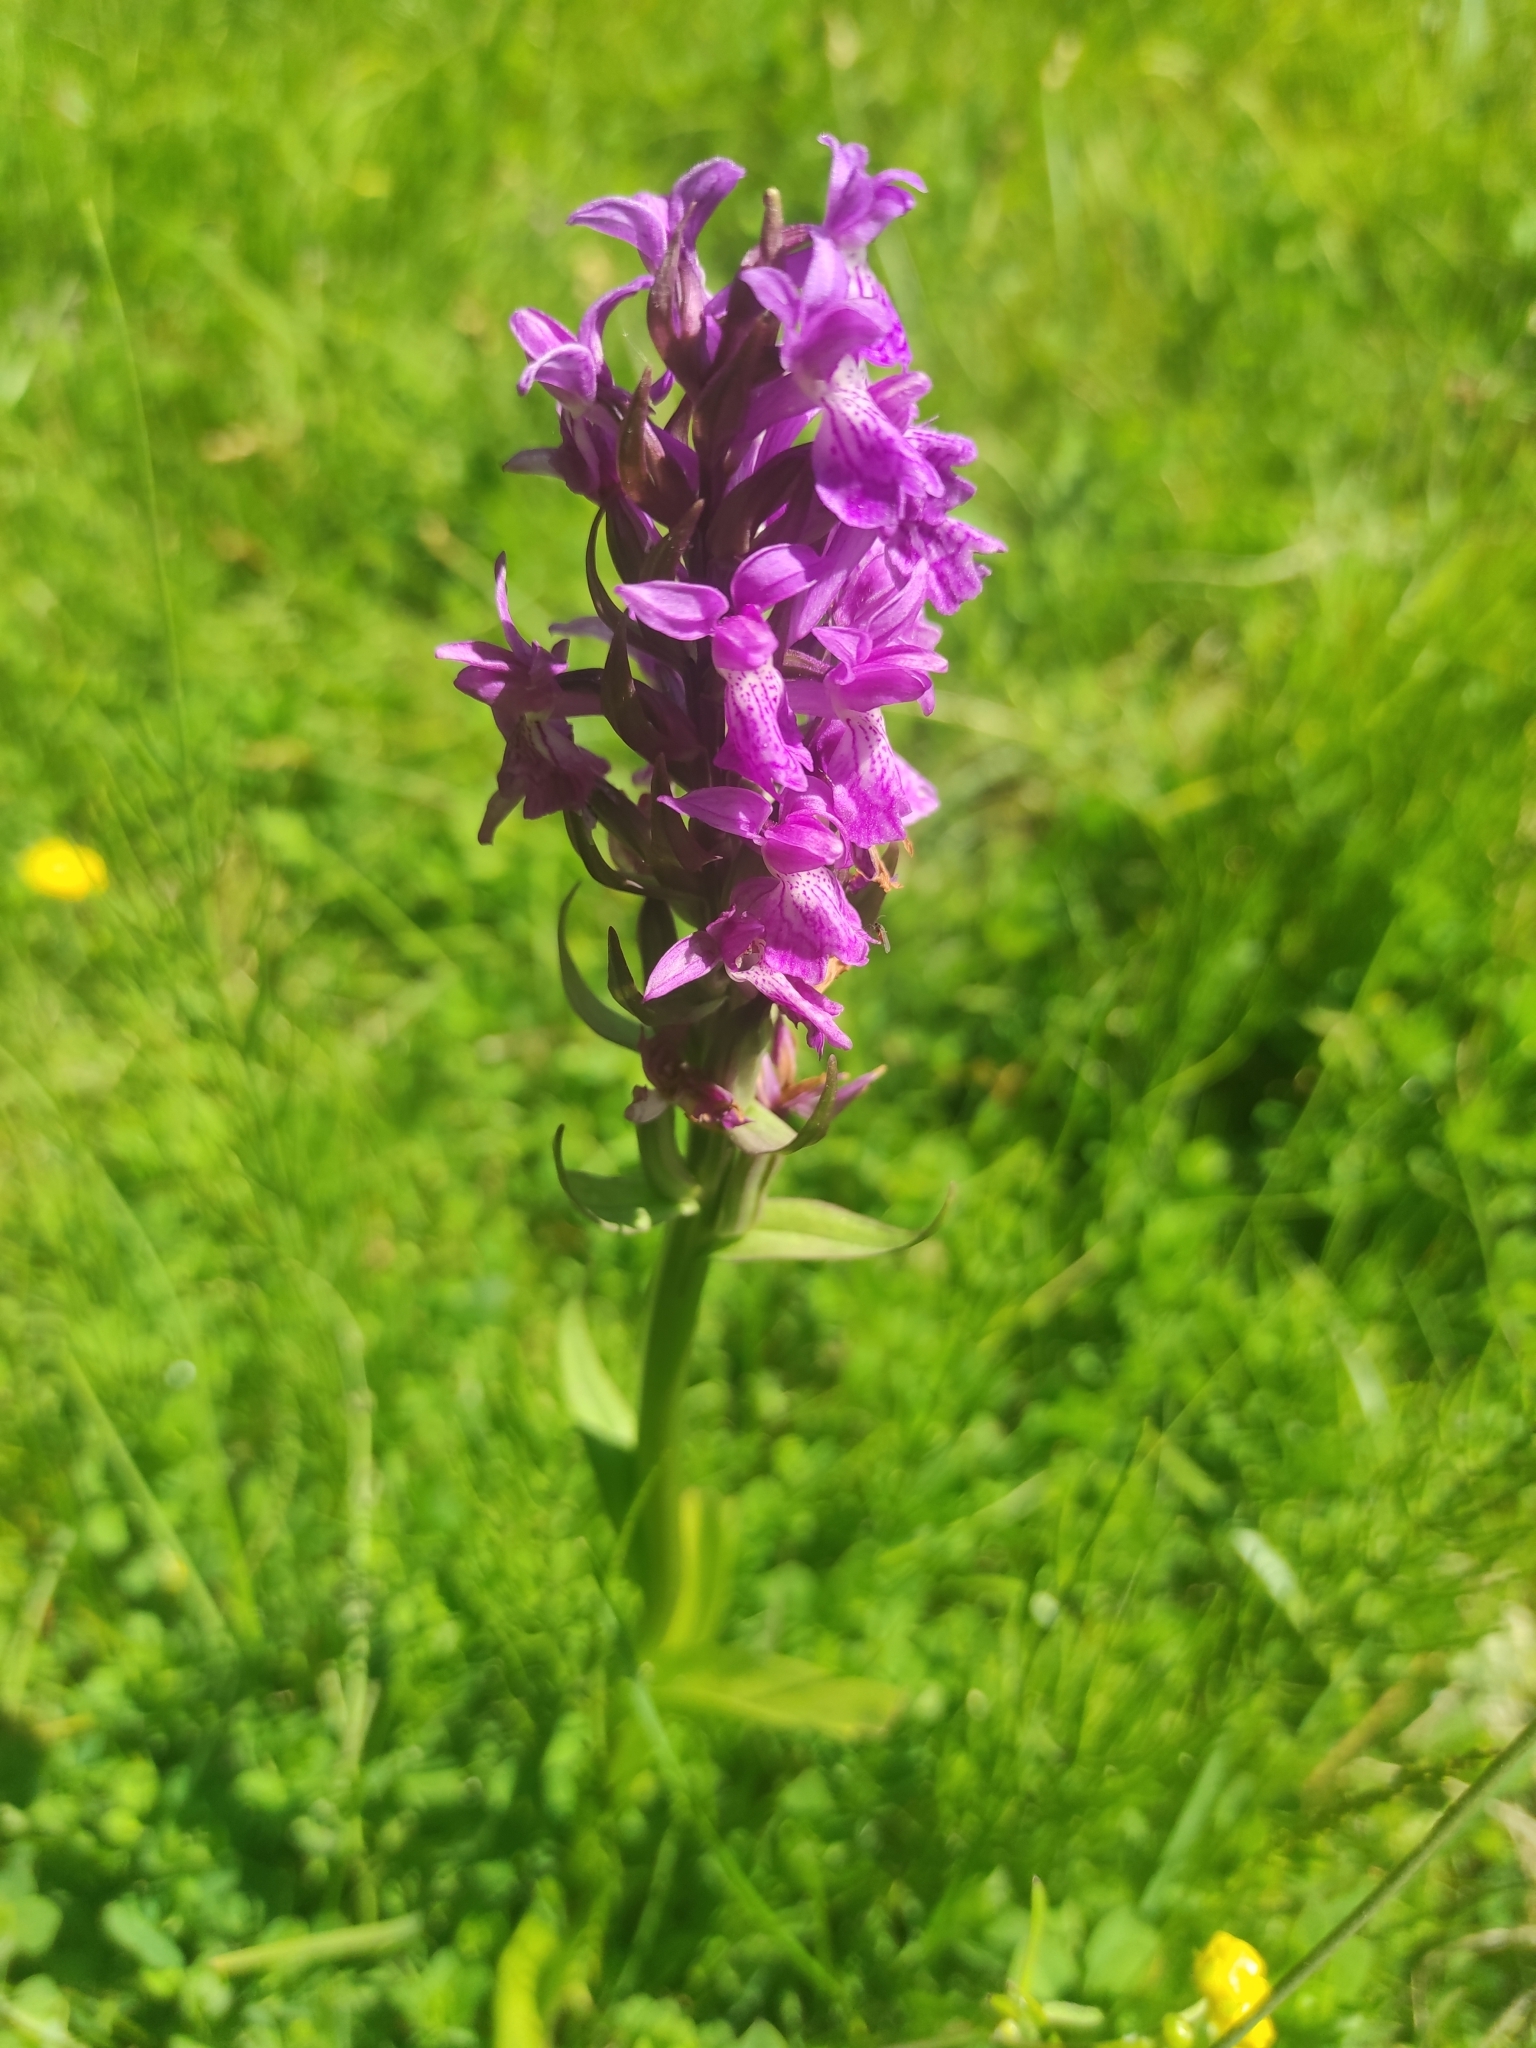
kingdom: Plantae
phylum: Tracheophyta
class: Liliopsida
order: Asparagales
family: Orchidaceae
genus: Dactylorhiza
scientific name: Dactylorhiza majalis
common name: Marsh orchid
